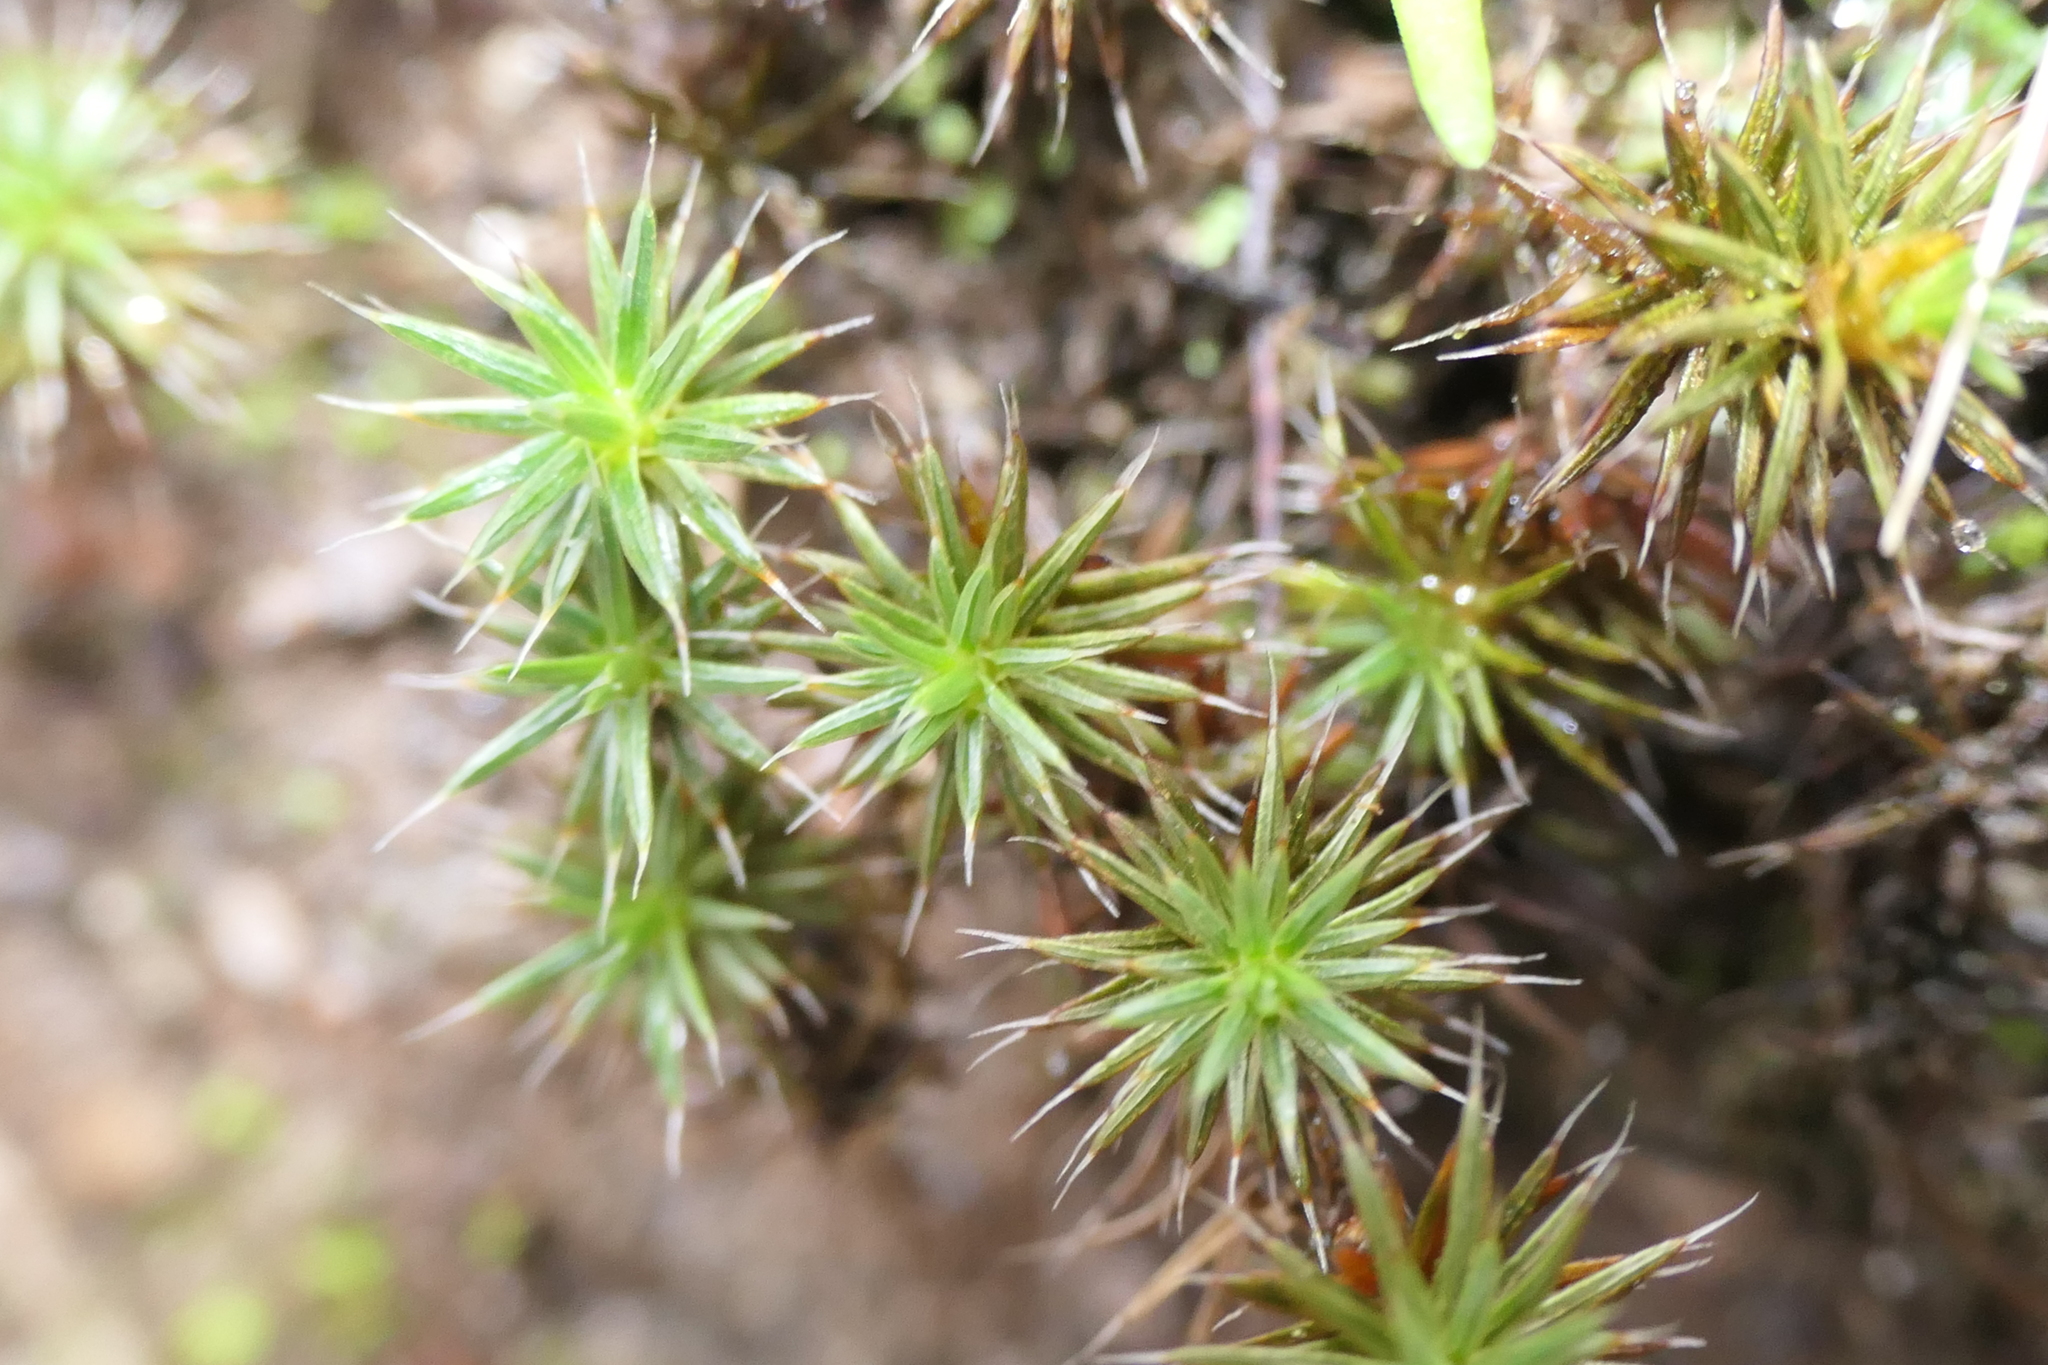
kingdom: Plantae
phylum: Bryophyta
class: Polytrichopsida
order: Polytrichales
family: Polytrichaceae
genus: Polytrichum
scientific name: Polytrichum piliferum
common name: Bristly haircap
